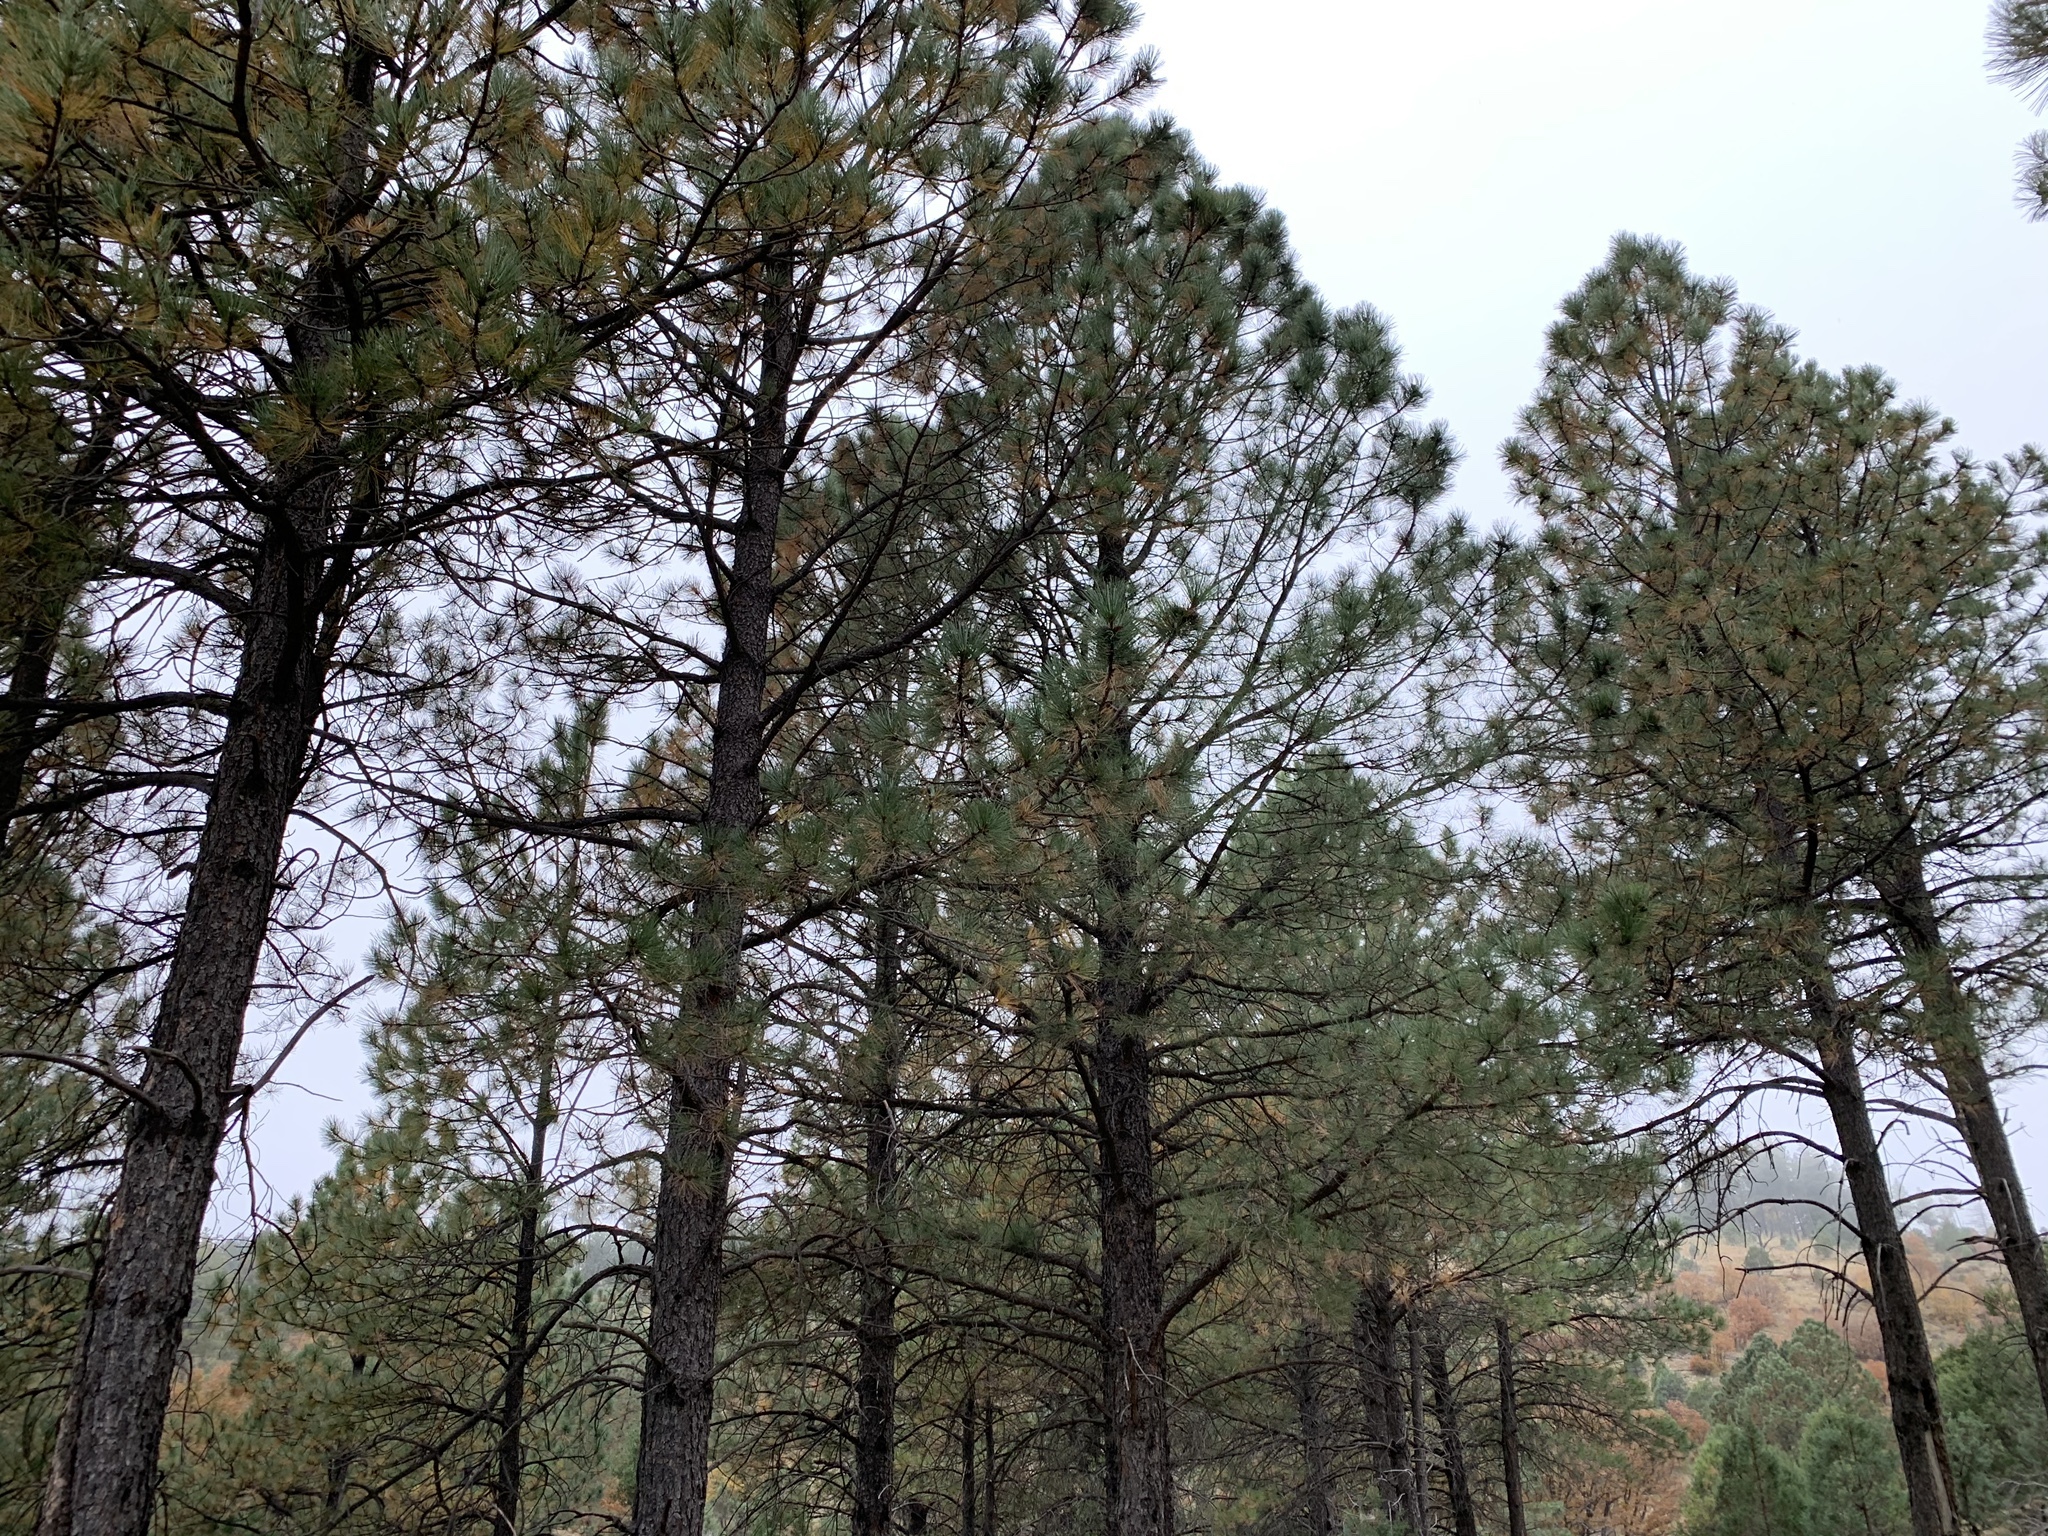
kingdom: Plantae
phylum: Tracheophyta
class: Pinopsida
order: Pinales
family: Pinaceae
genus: Pinus
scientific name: Pinus ponderosa
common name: Western yellow-pine
